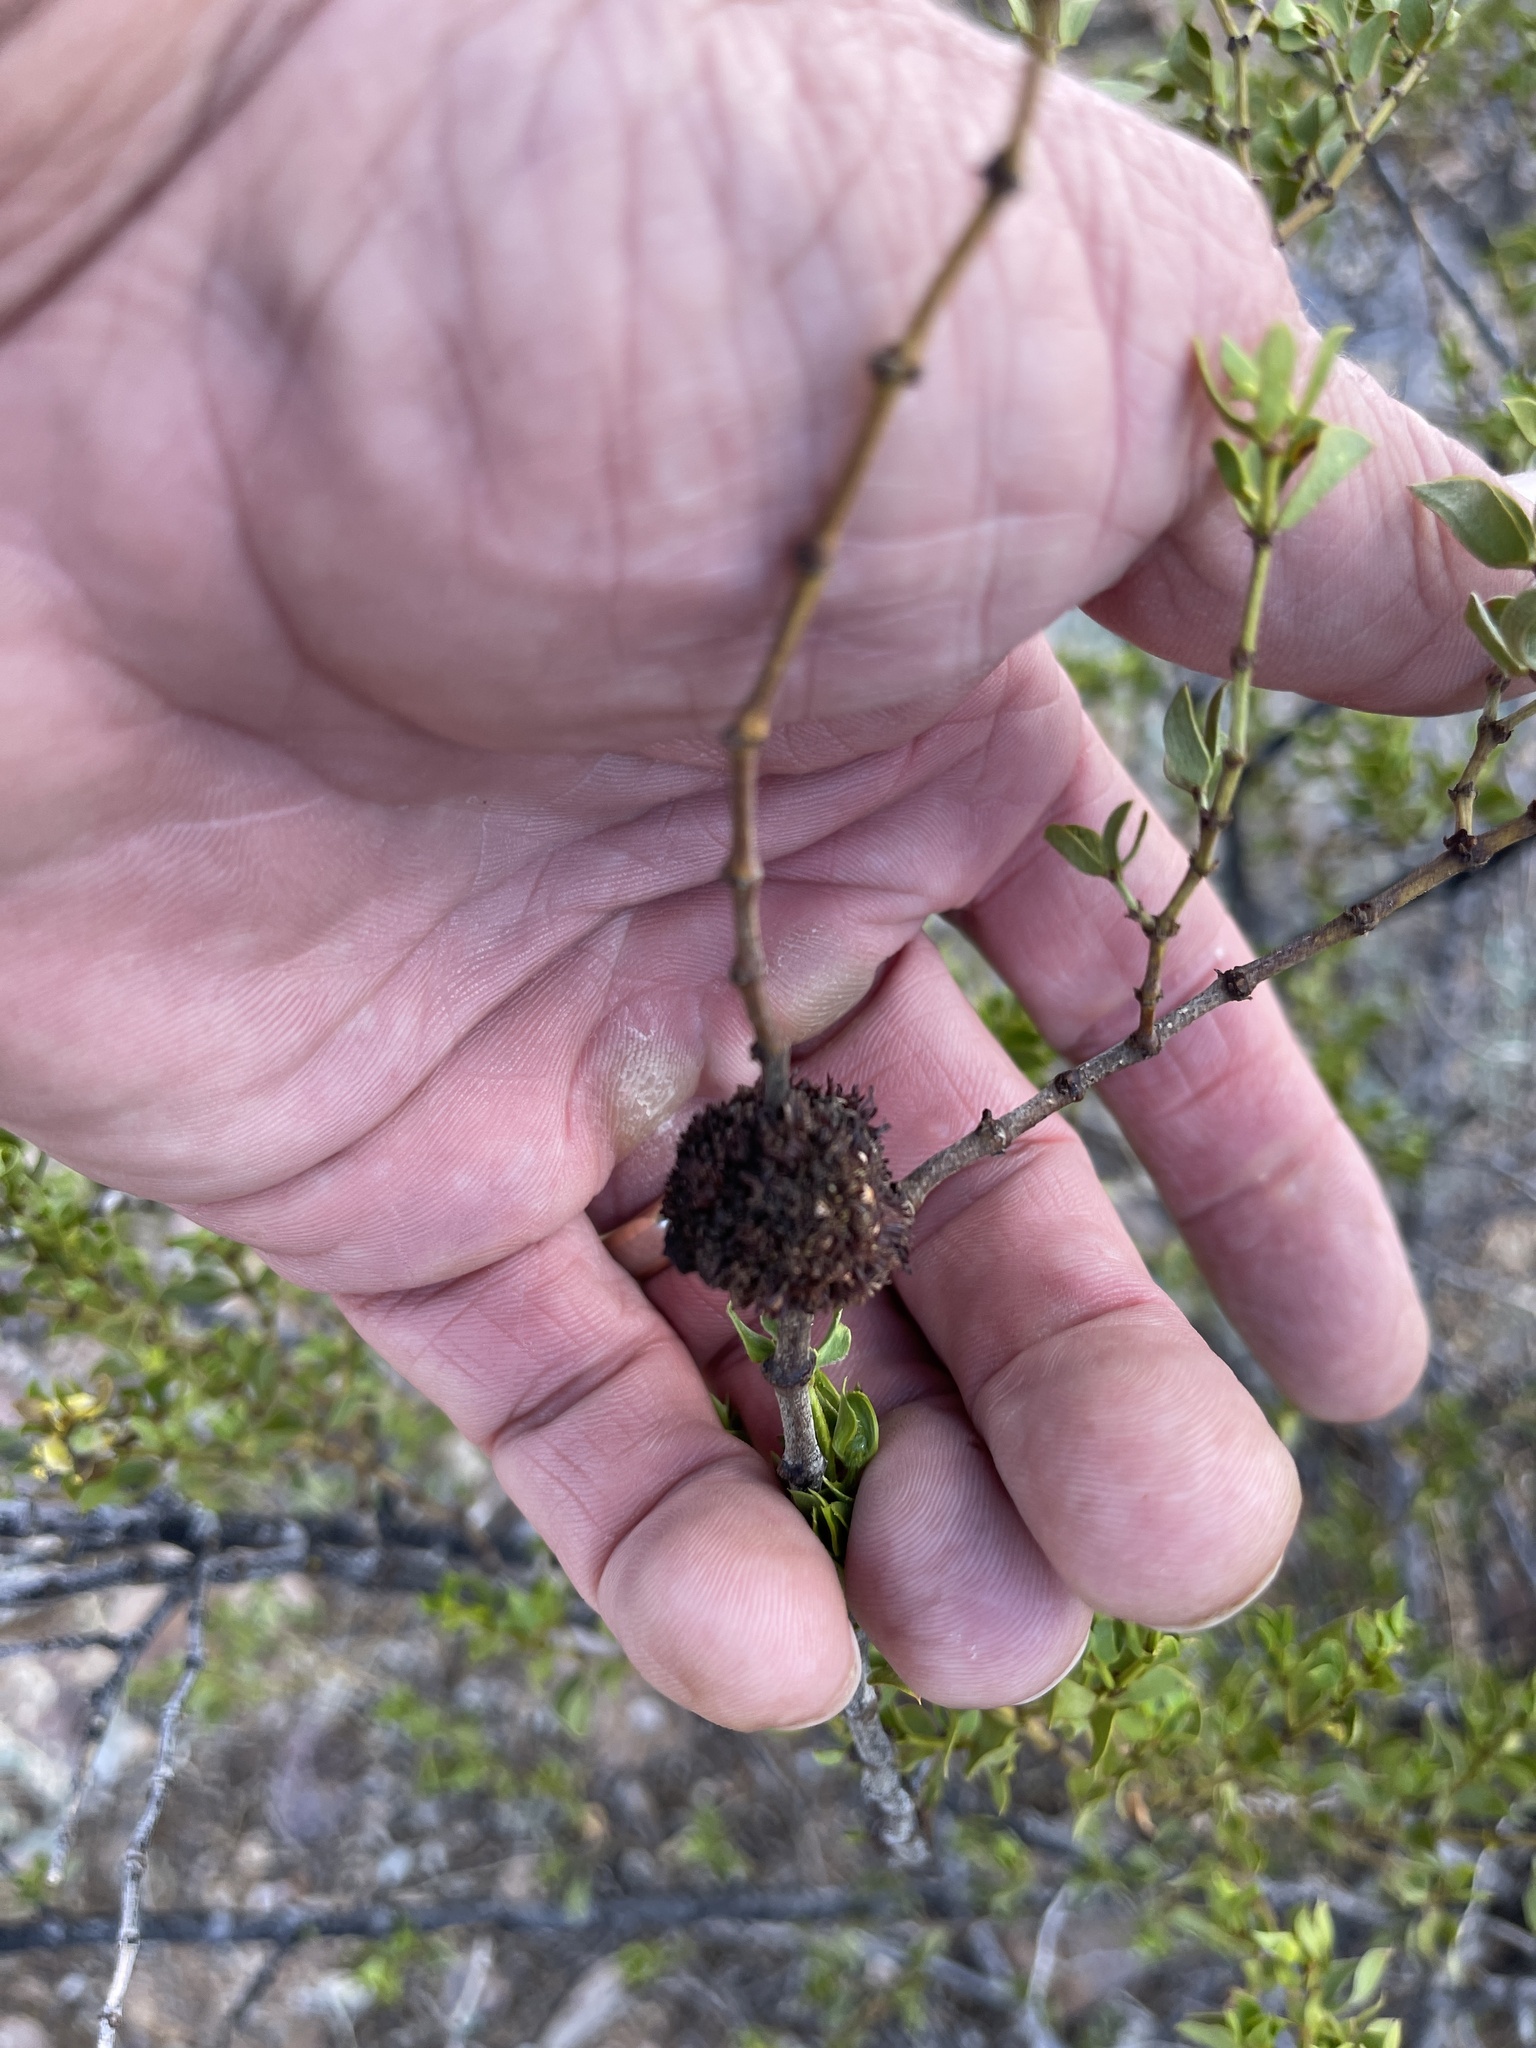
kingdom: Animalia
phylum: Arthropoda
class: Insecta
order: Diptera
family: Cecidomyiidae
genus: Asphondylia
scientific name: Asphondylia auripila
